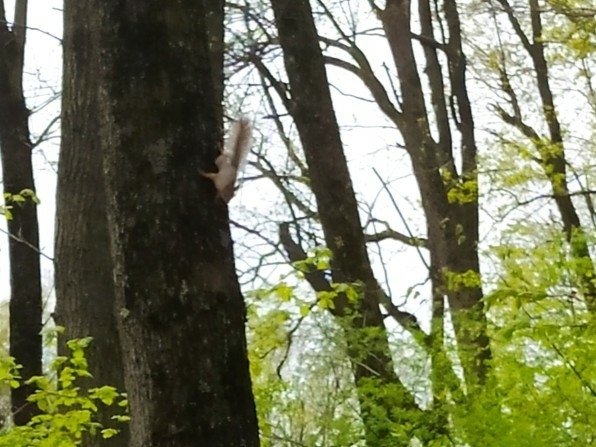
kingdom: Animalia
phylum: Chordata
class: Mammalia
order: Rodentia
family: Sciuridae
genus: Sciurus
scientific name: Sciurus vulgaris
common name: Eurasian red squirrel
